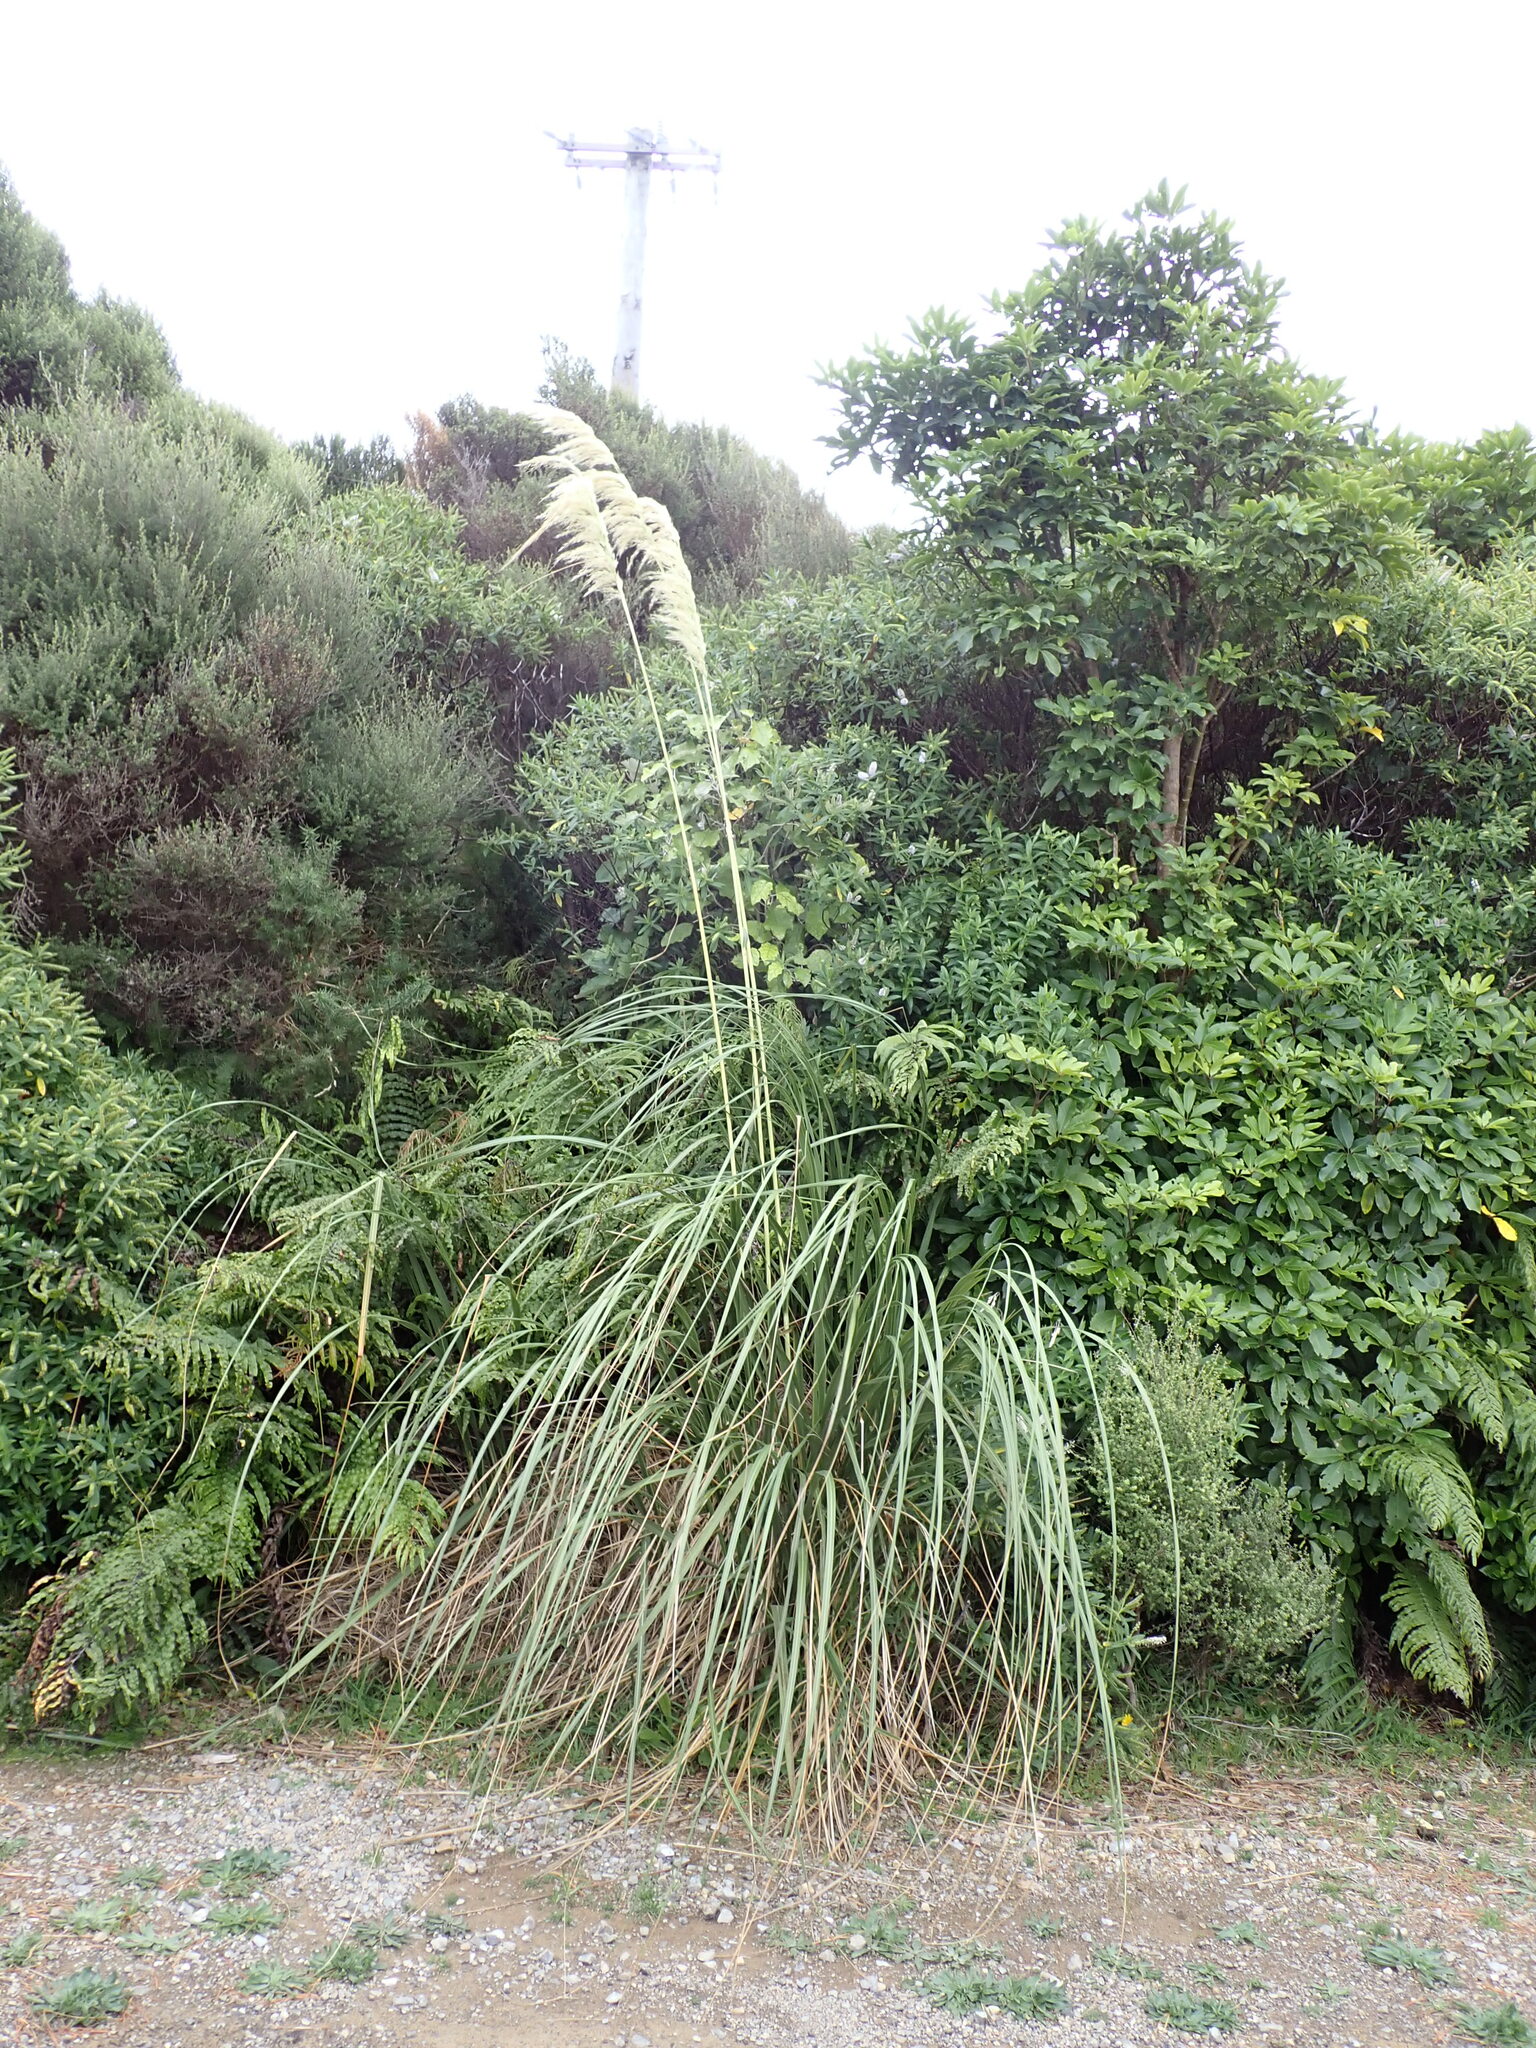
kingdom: Plantae
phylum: Tracheophyta
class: Liliopsida
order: Poales
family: Poaceae
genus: Austroderia
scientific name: Austroderia fulvida
